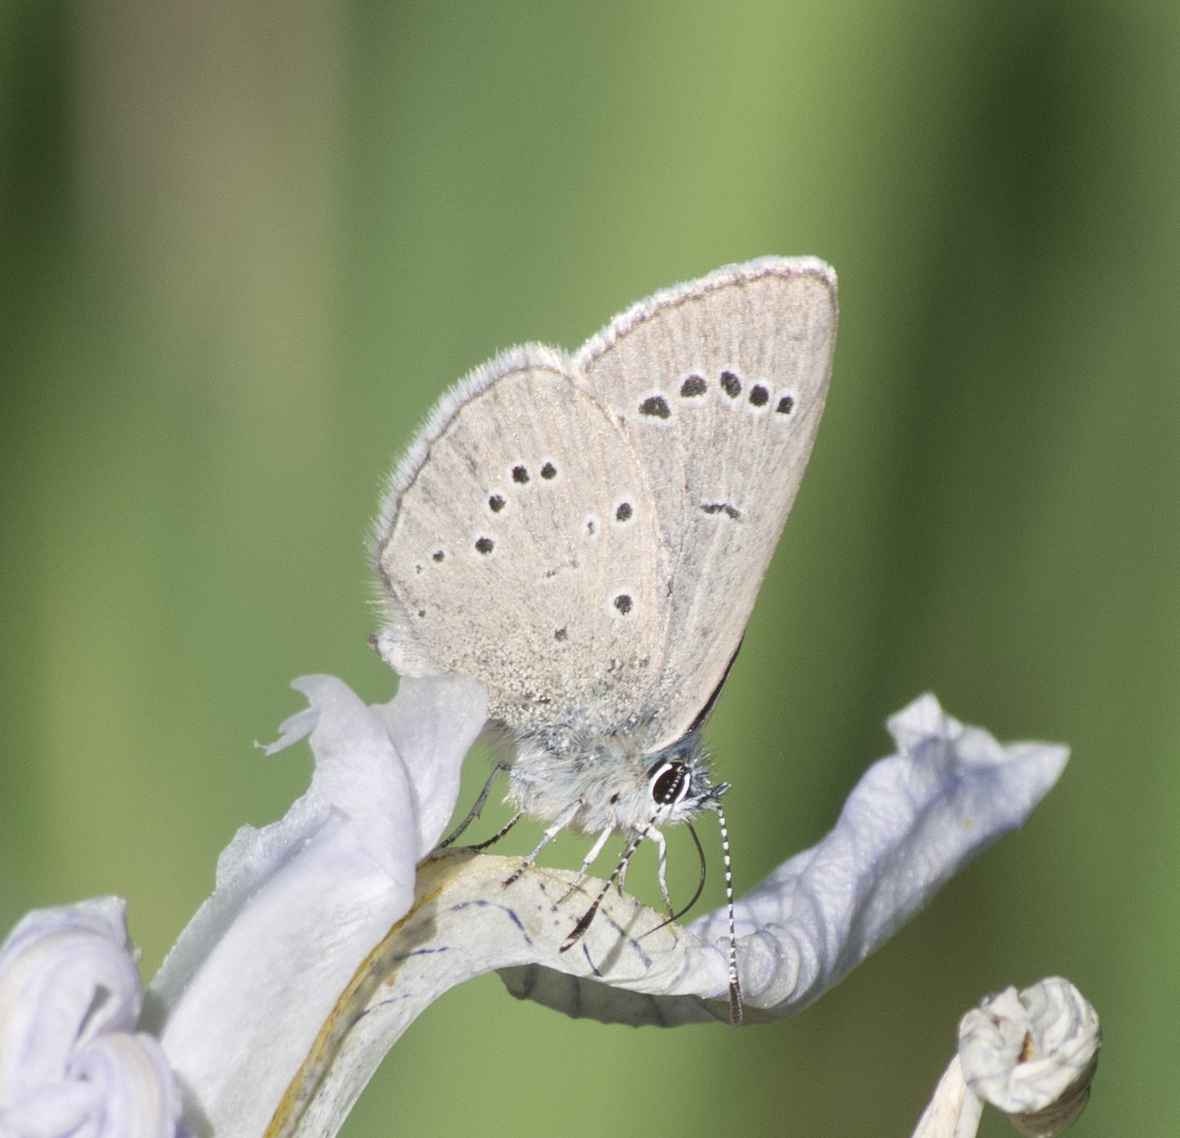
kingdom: Animalia
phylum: Arthropoda
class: Insecta
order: Lepidoptera
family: Lycaenidae
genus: Glaucopsyche
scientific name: Glaucopsyche lygdamus
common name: Silvery blue
